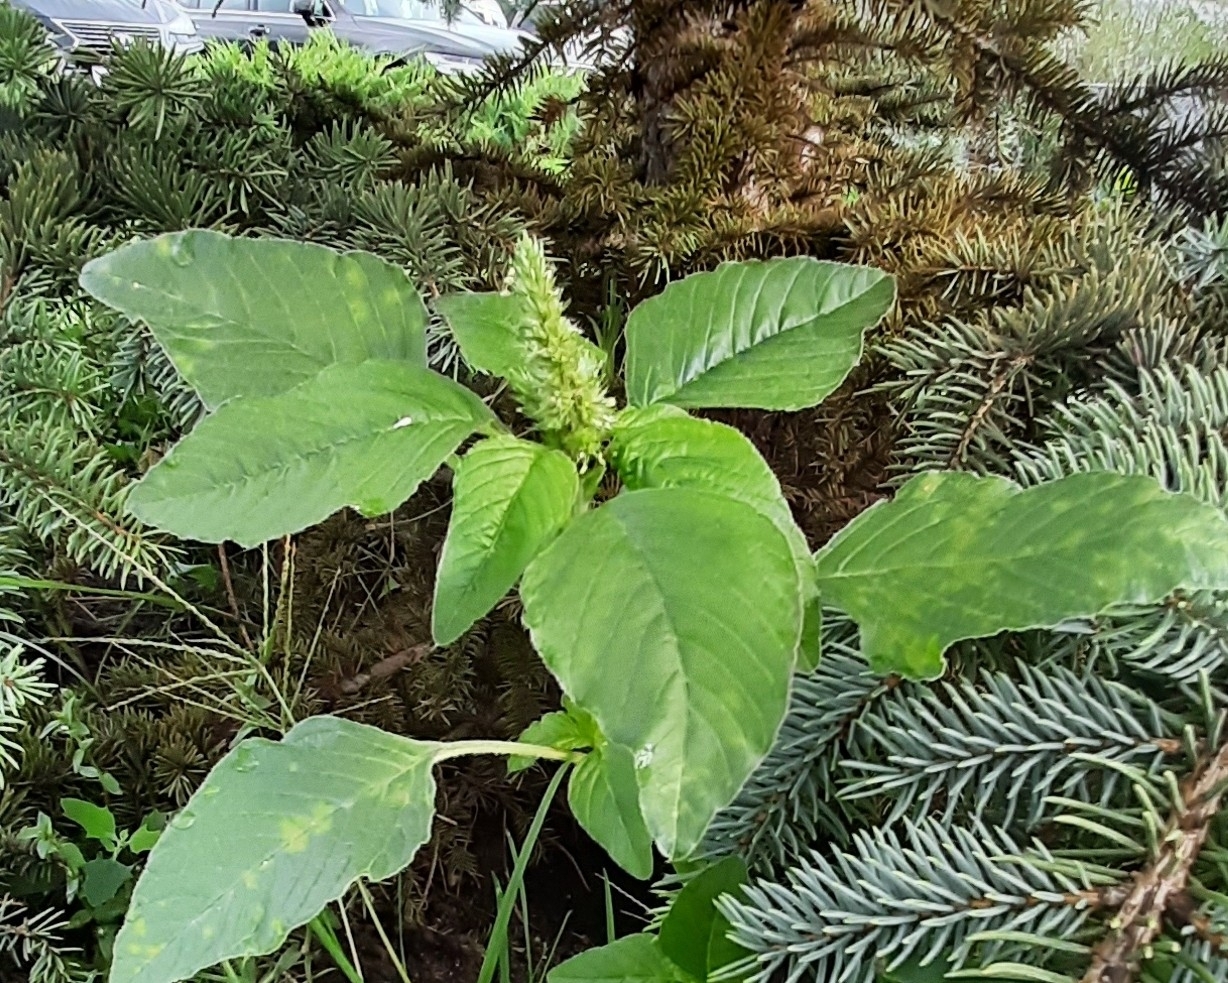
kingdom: Plantae
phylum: Tracheophyta
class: Magnoliopsida
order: Caryophyllales
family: Amaranthaceae
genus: Amaranthus
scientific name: Amaranthus retroflexus
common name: Redroot amaranth
